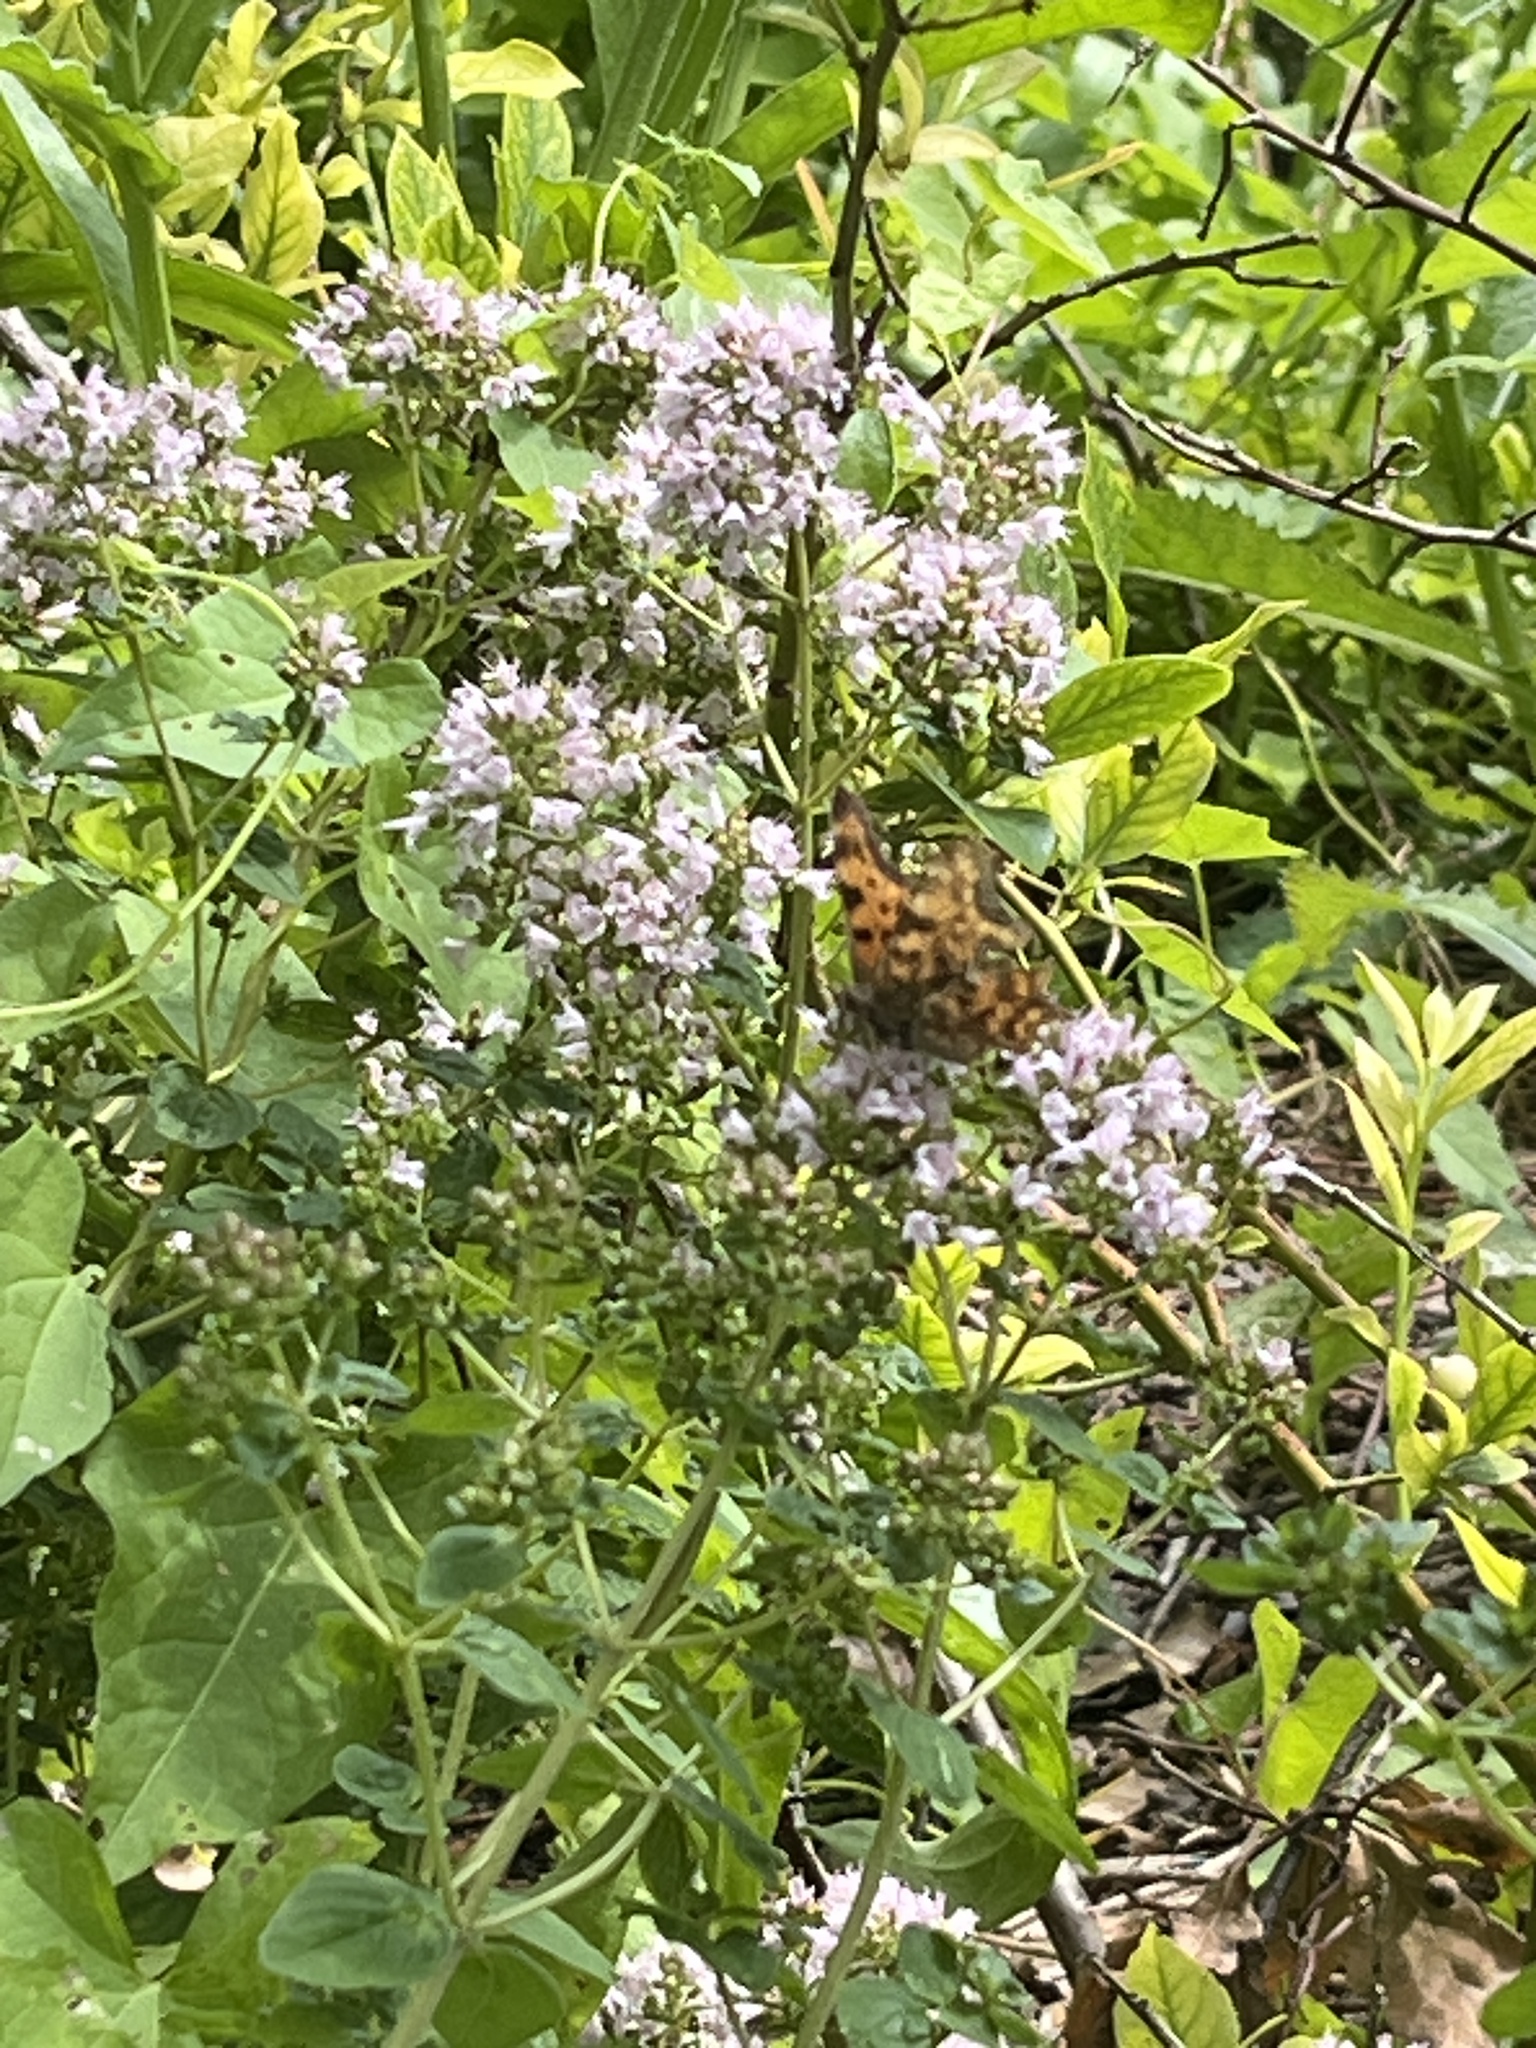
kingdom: Animalia
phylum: Arthropoda
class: Insecta
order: Lepidoptera
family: Nymphalidae
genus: Polygonia
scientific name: Polygonia c-album
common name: Comma
